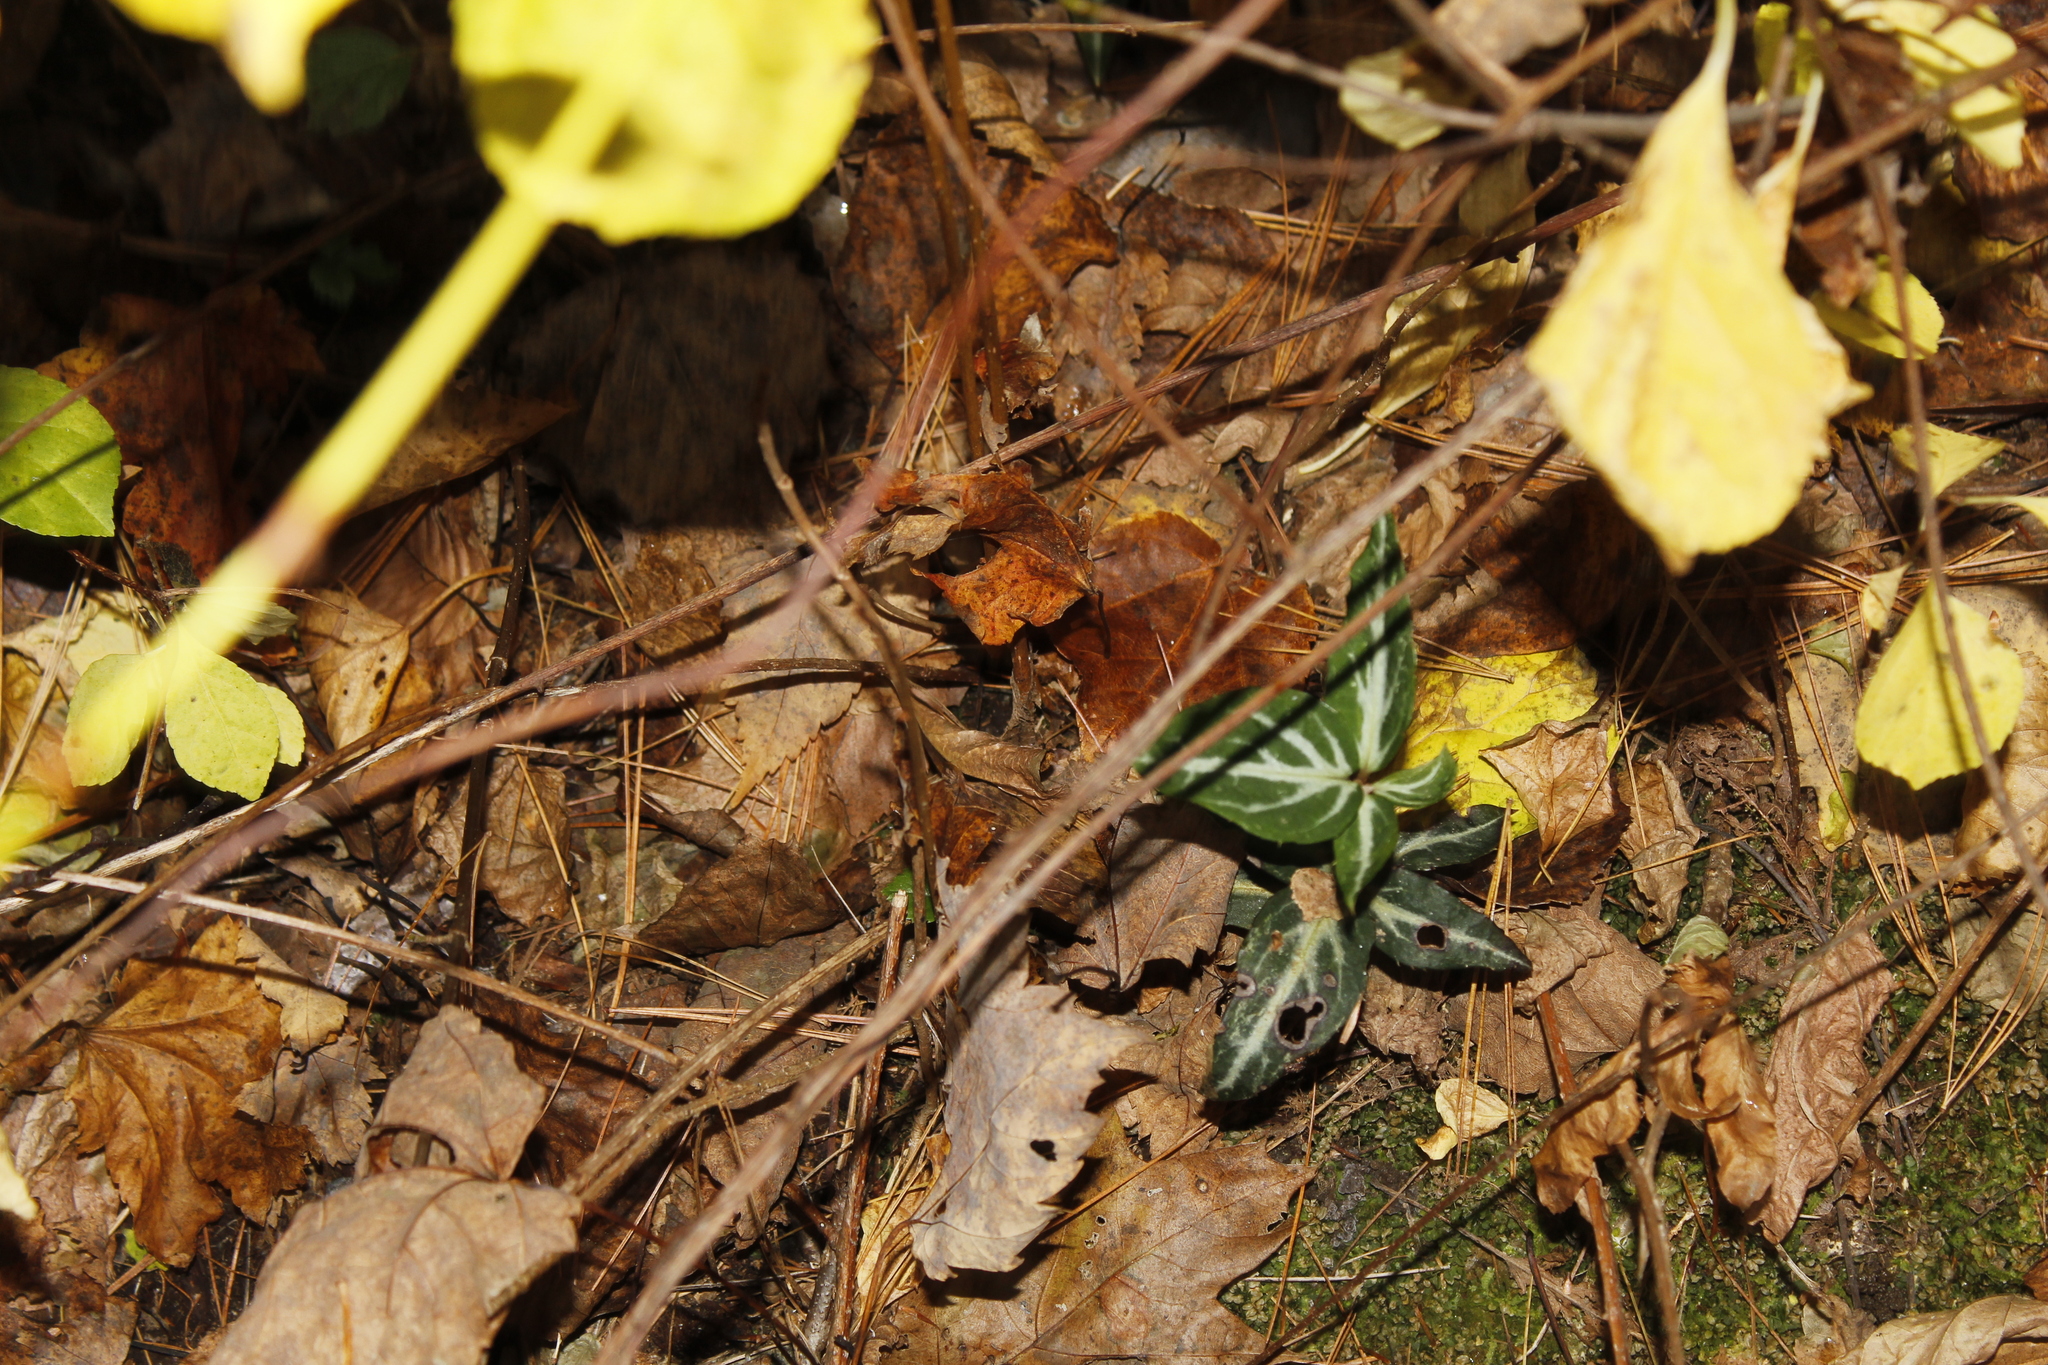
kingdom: Plantae
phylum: Tracheophyta
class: Magnoliopsida
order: Ericales
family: Ericaceae
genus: Chimaphila
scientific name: Chimaphila maculata
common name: Spotted pipsissewa
